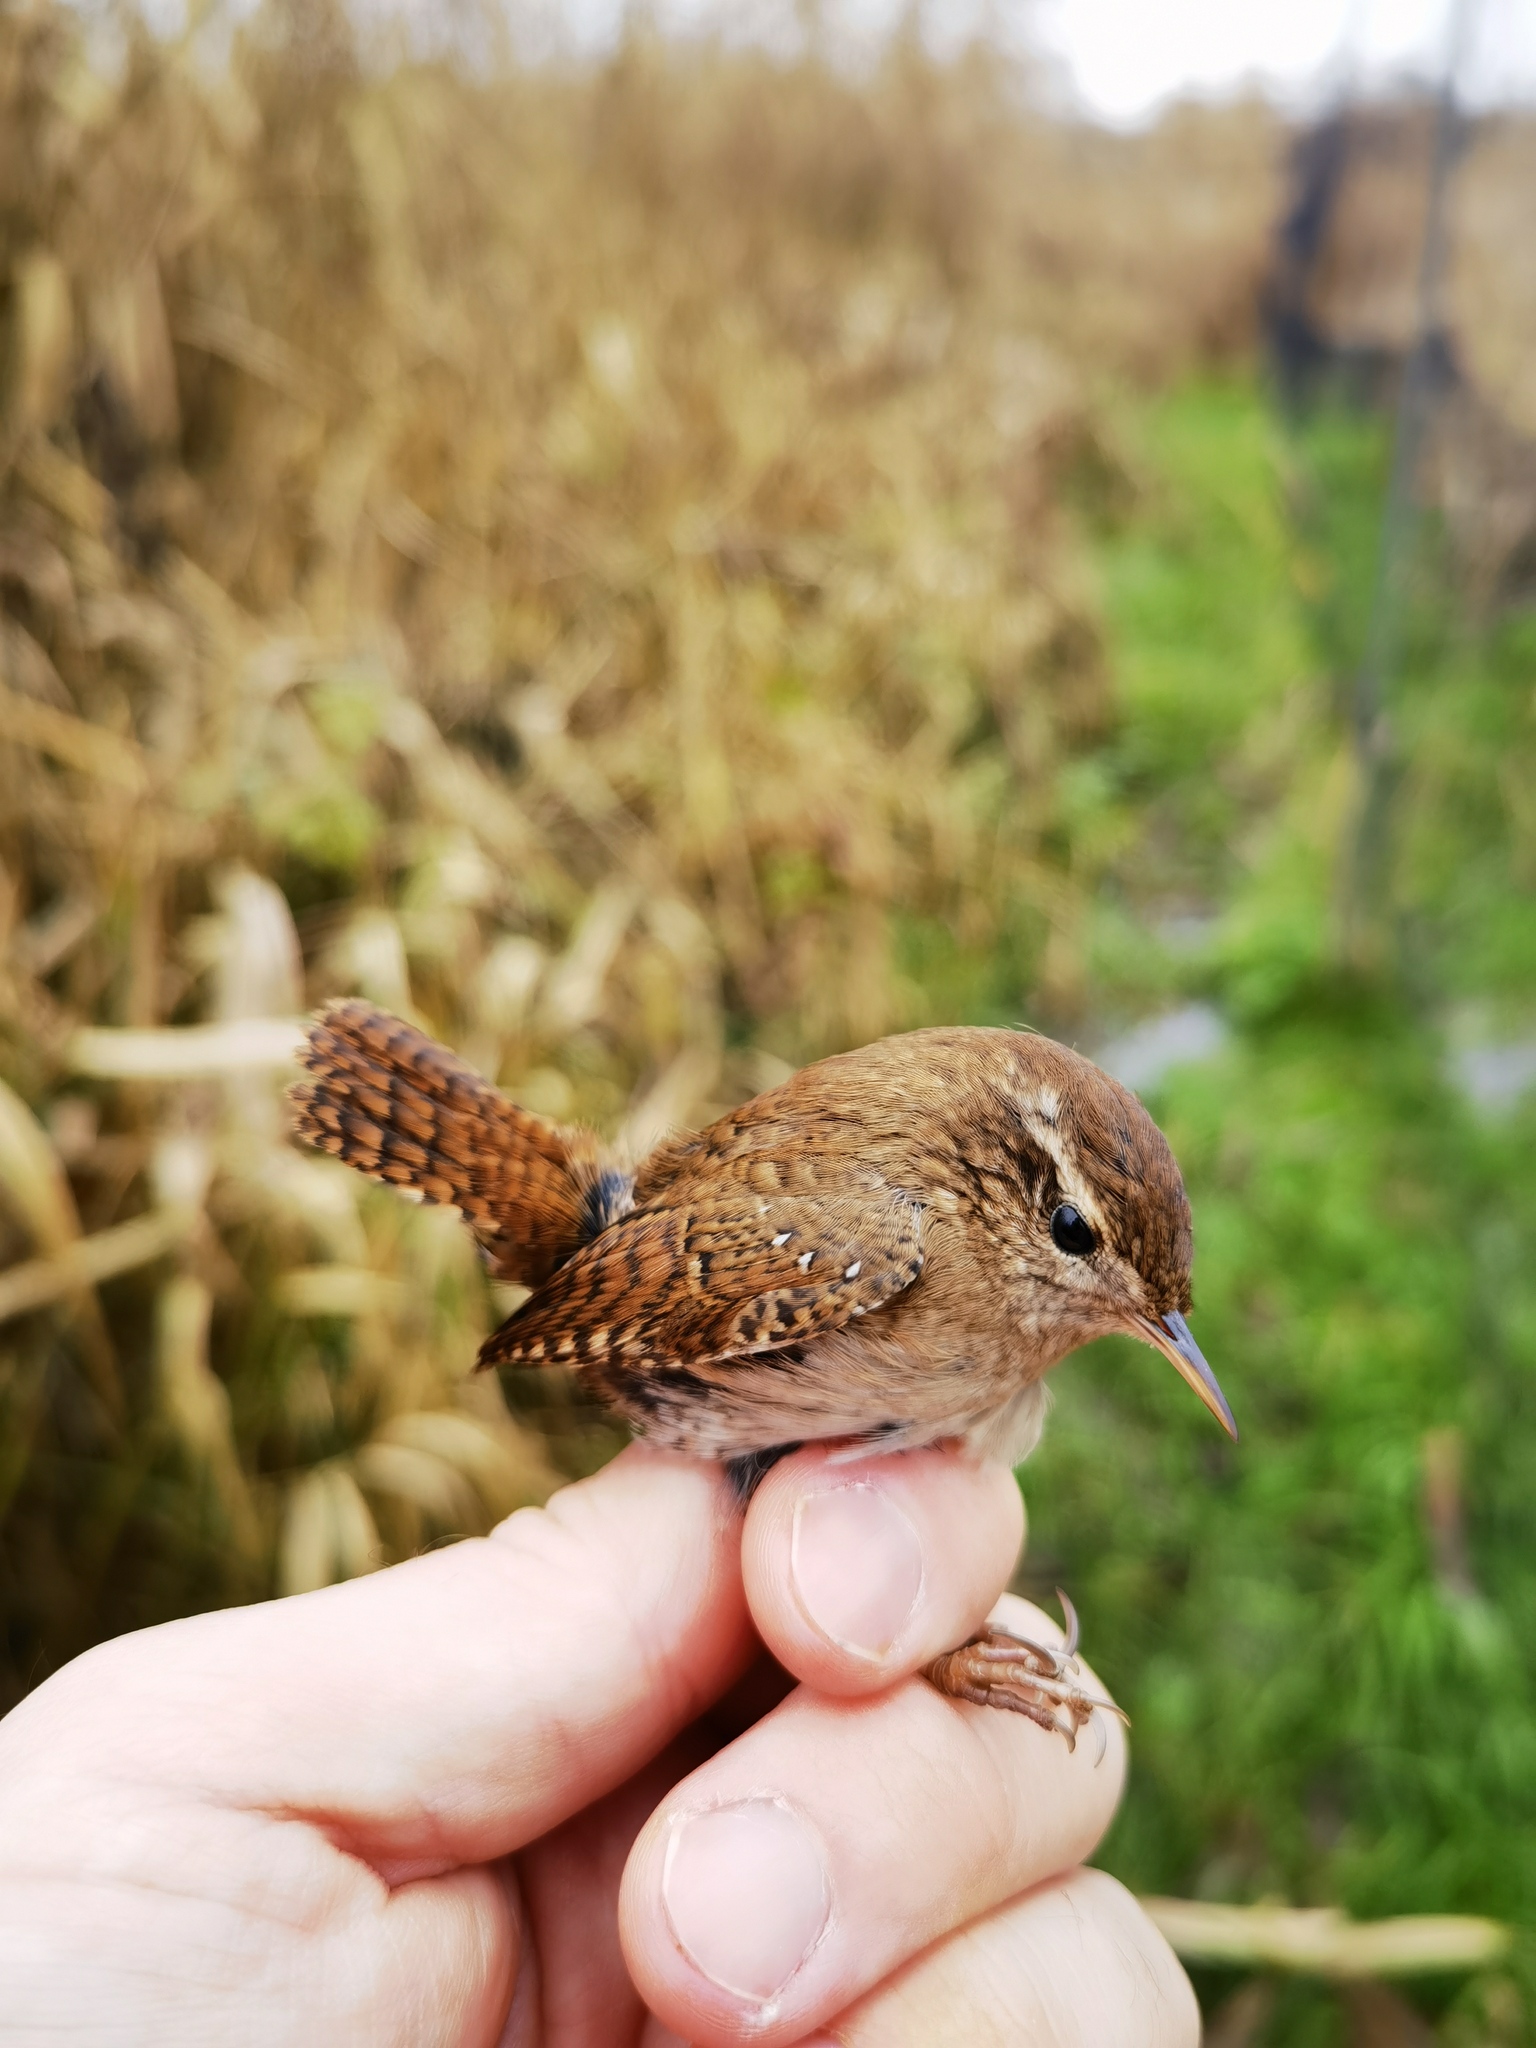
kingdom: Animalia
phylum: Chordata
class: Aves
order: Passeriformes
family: Troglodytidae
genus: Troglodytes
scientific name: Troglodytes troglodytes
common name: Eurasian wren
